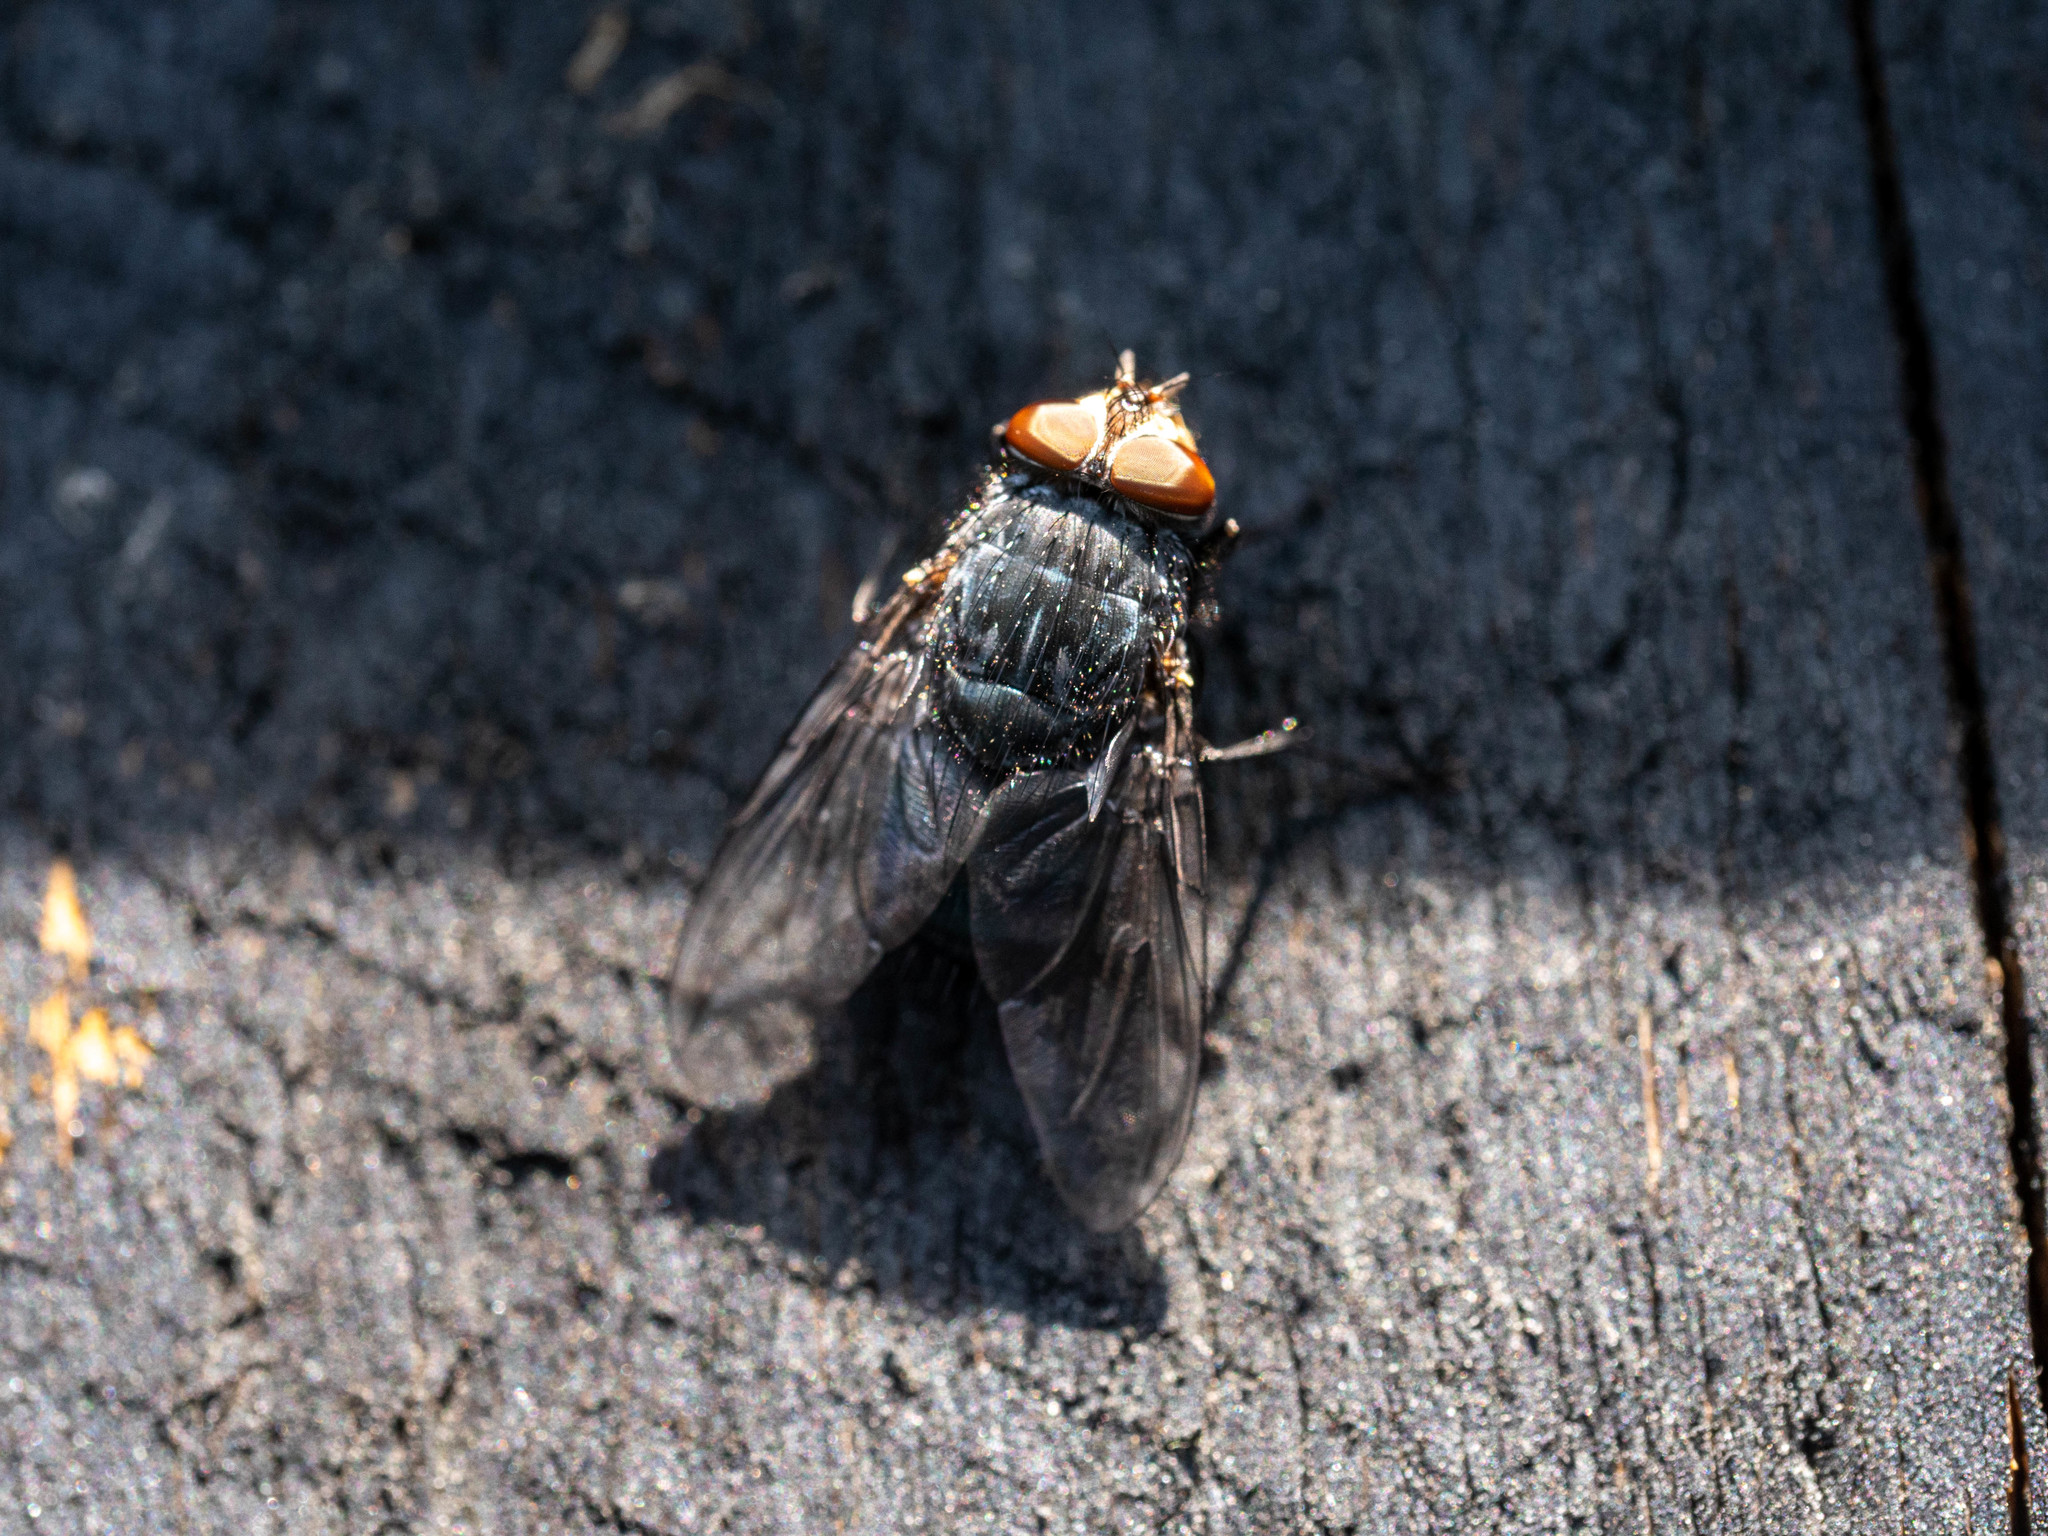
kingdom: Animalia
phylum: Arthropoda
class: Insecta
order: Diptera
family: Calliphoridae
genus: Calliphora
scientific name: Calliphora vicina
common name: Common blow flie
